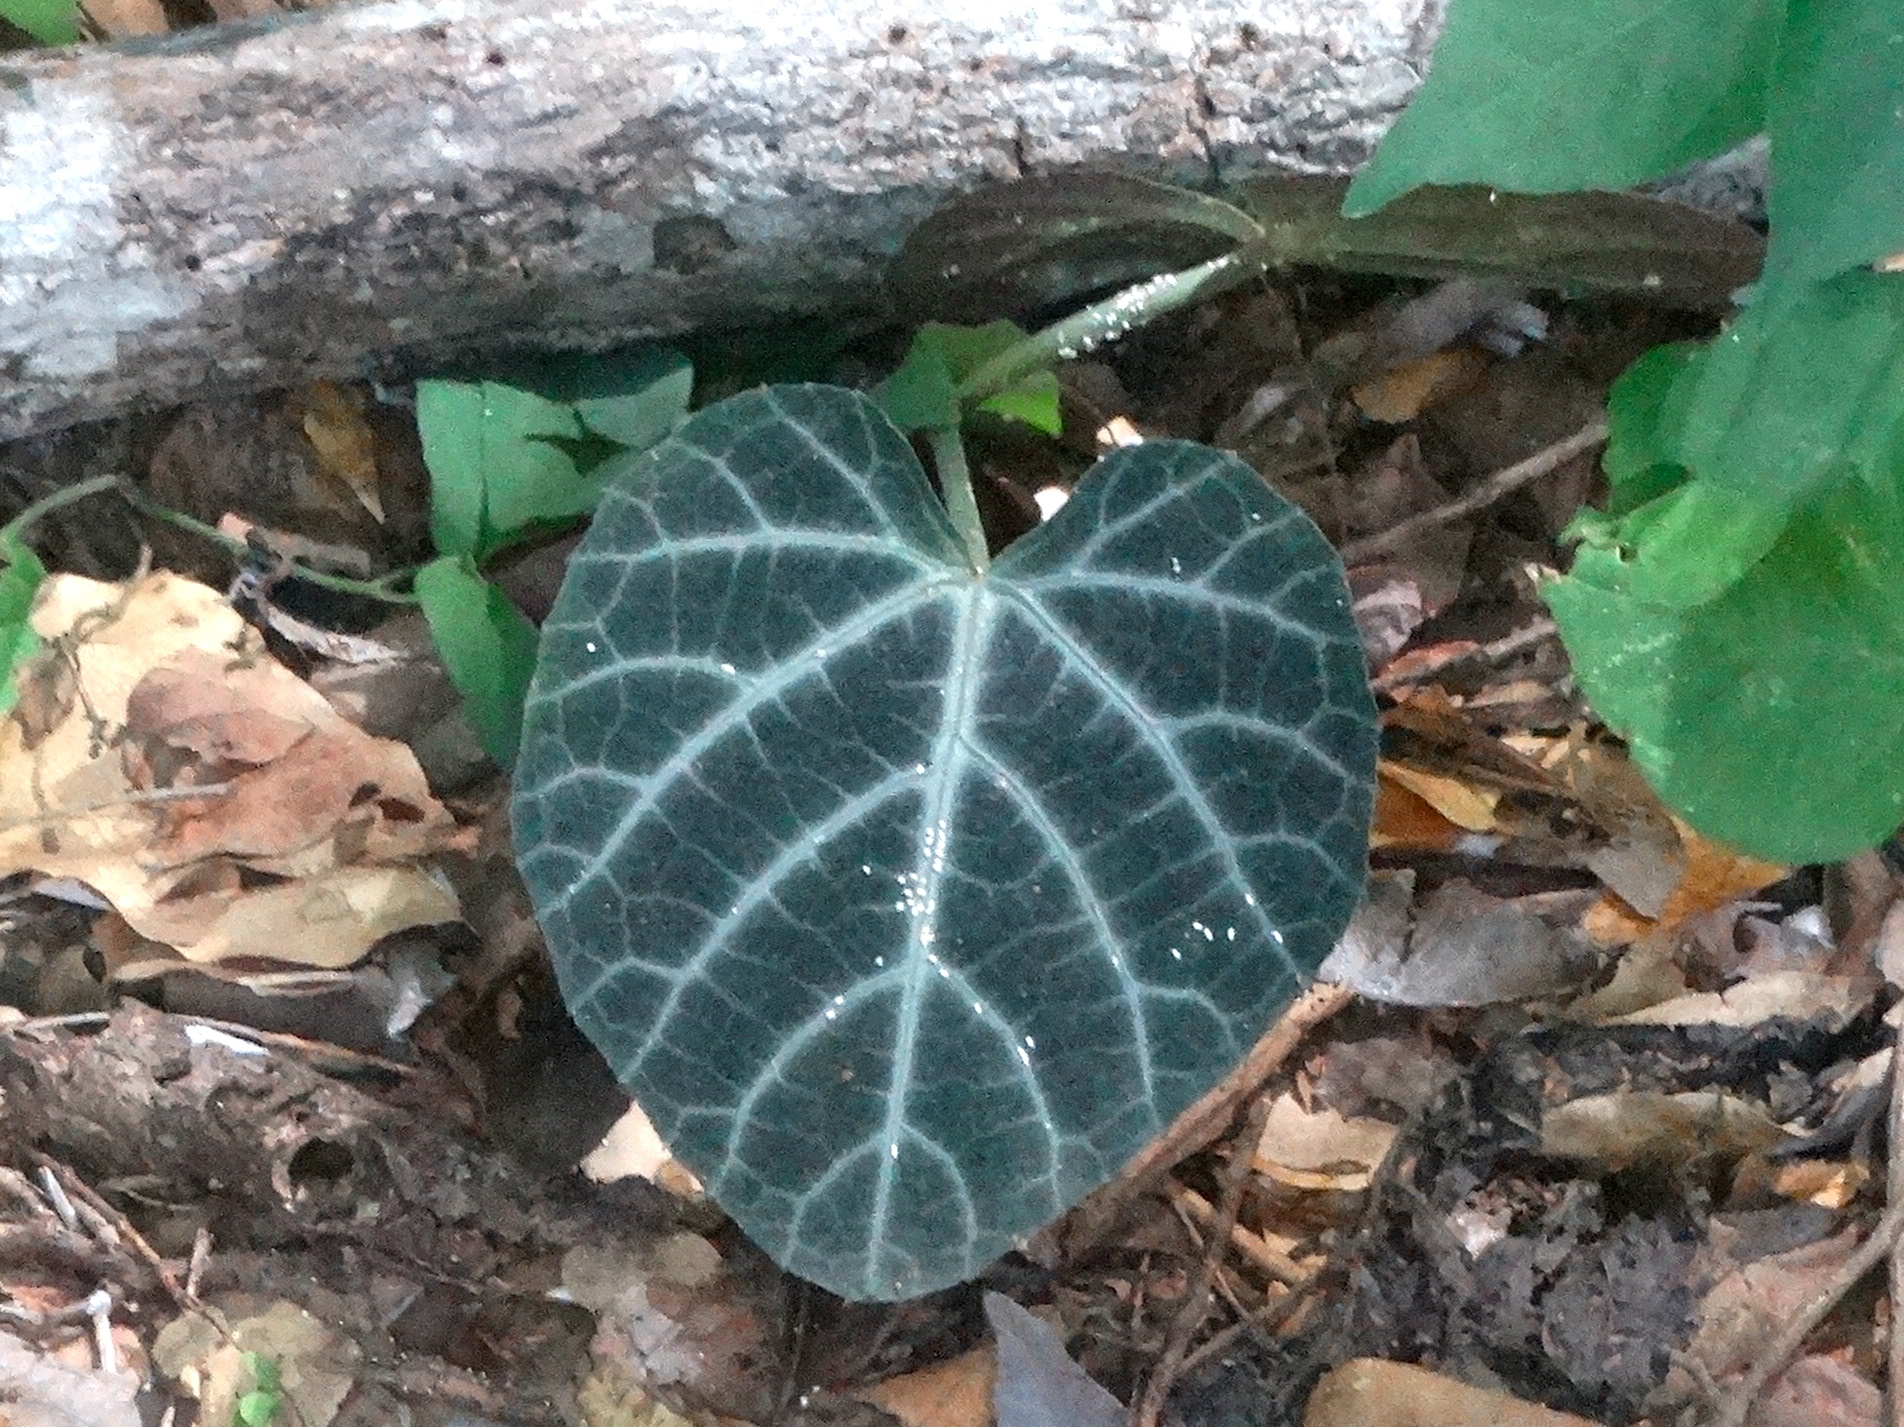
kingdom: Plantae
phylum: Tracheophyta
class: Magnoliopsida
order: Apiales
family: Araliaceae
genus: Hedera
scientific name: Hedera helix
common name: Ivy
